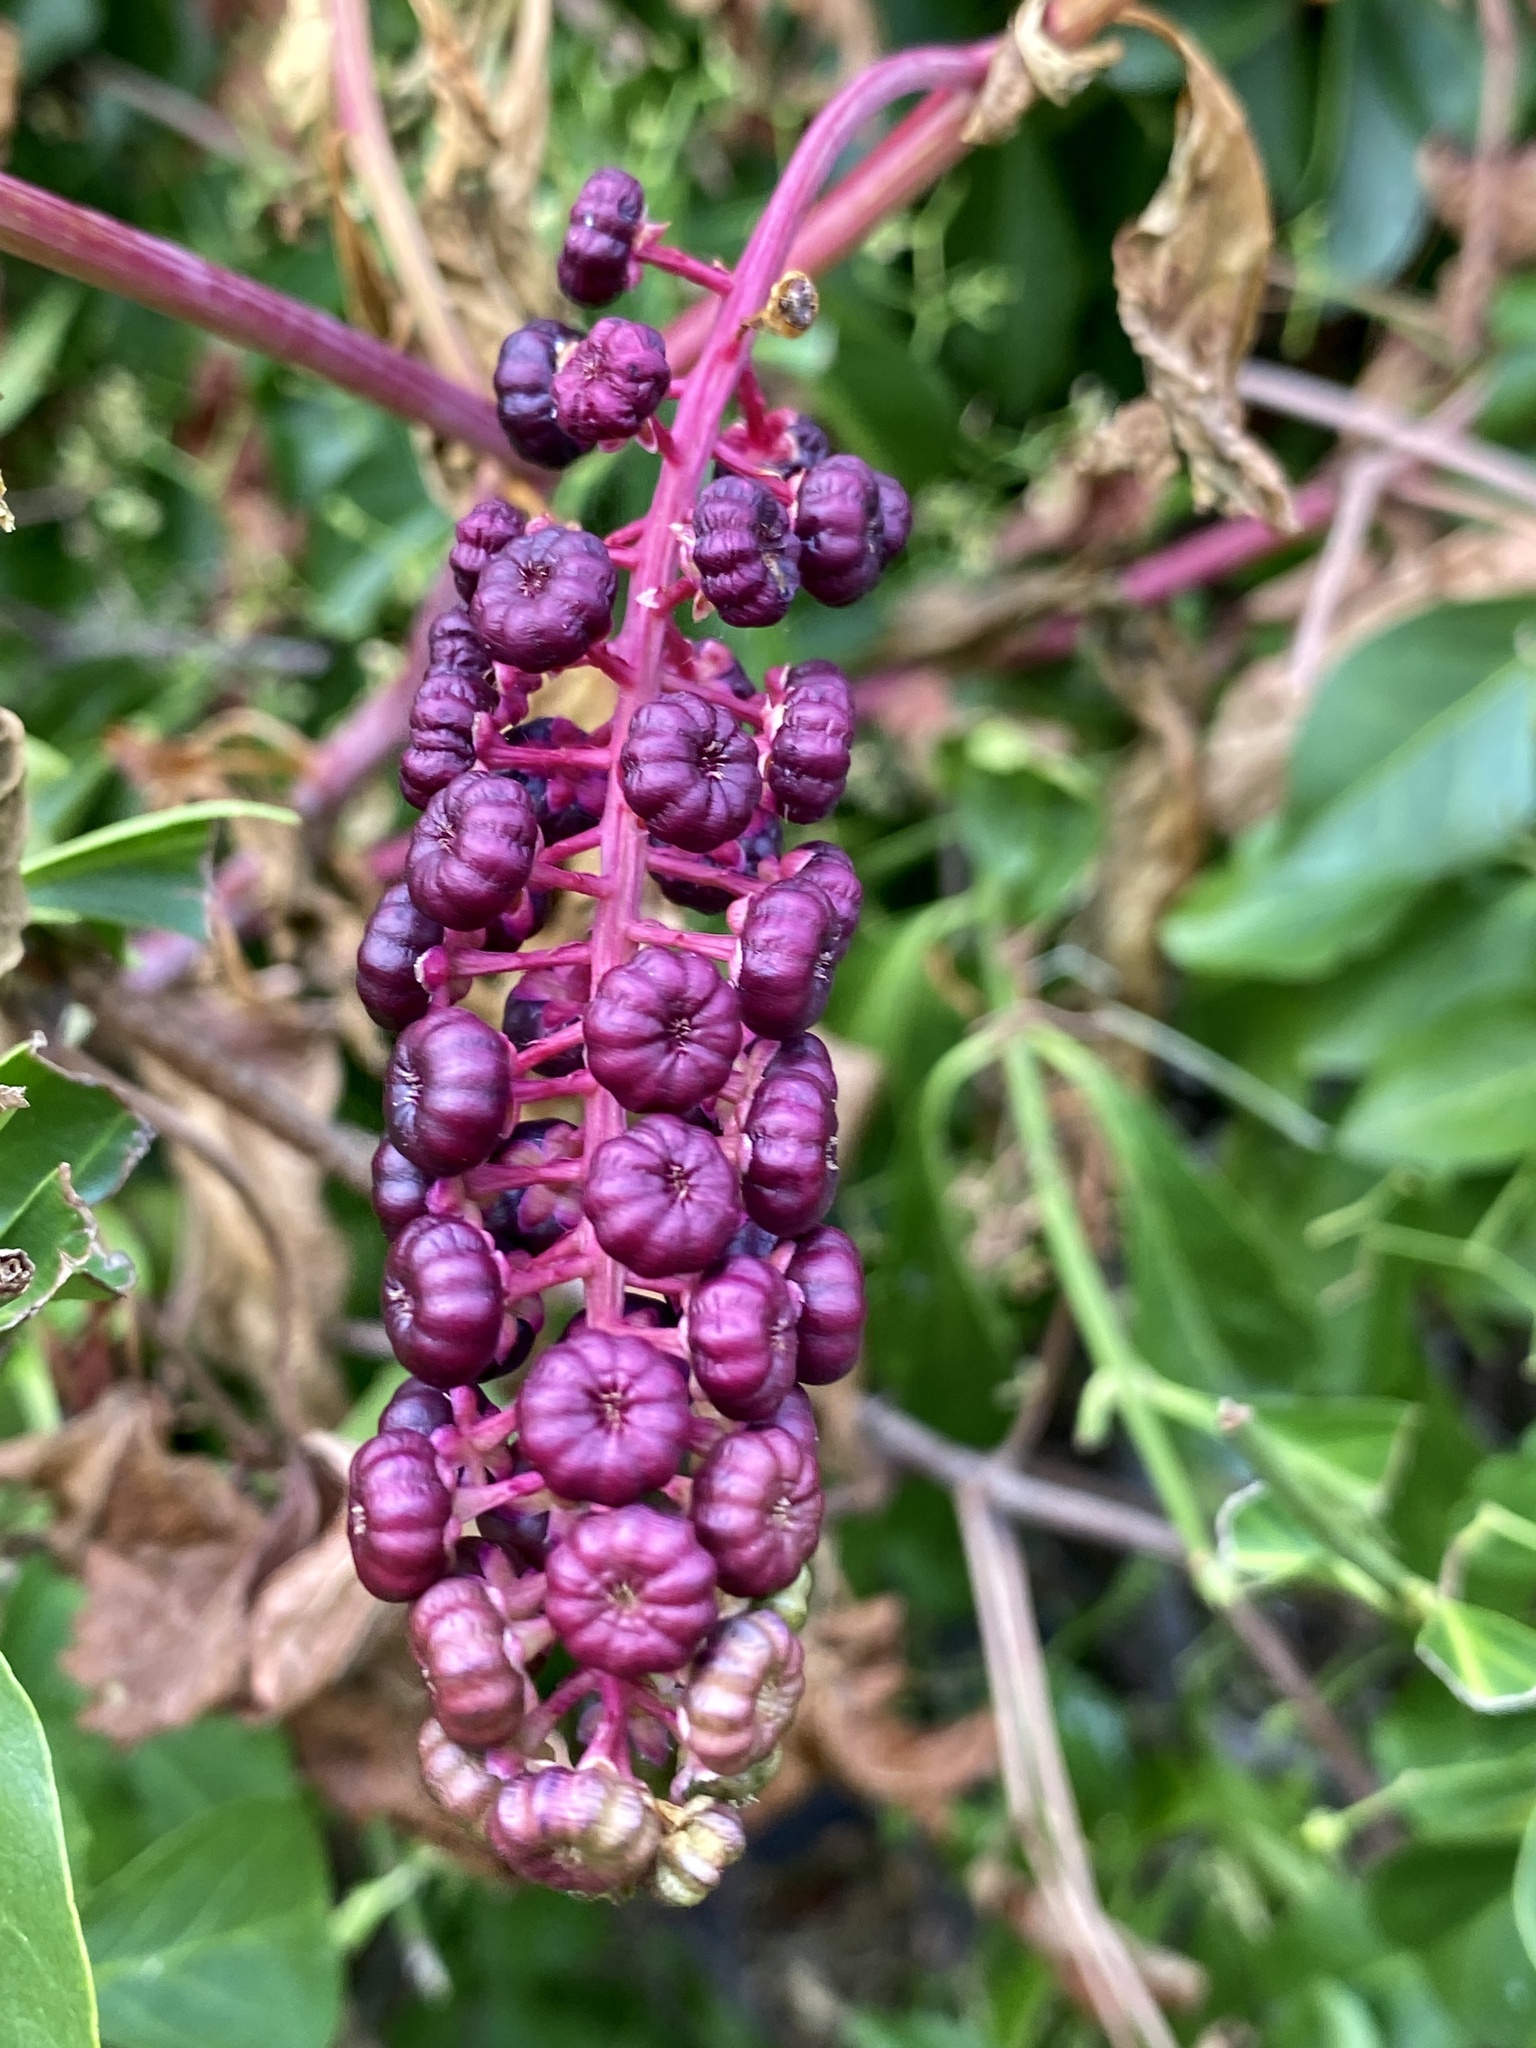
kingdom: Plantae
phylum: Tracheophyta
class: Magnoliopsida
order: Caryophyllales
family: Phytolaccaceae
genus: Phytolacca
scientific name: Phytolacca americana
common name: American pokeweed
